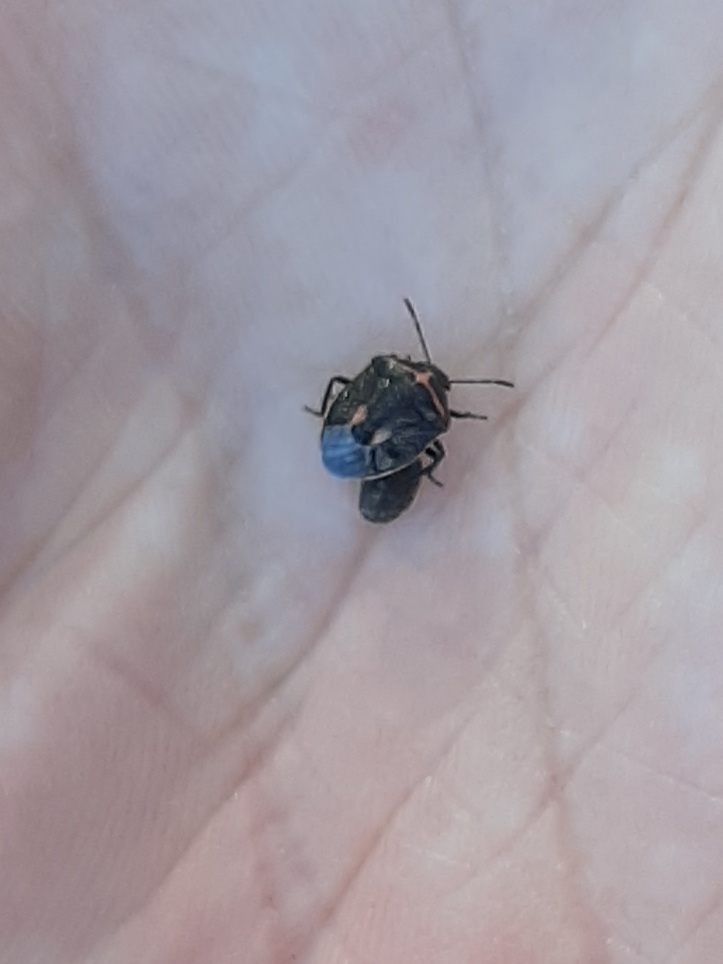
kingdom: Animalia
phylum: Arthropoda
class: Insecta
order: Hemiptera
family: Pentatomidae
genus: Cosmopepla
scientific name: Cosmopepla lintneriana
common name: Twice-stabbed stink bug
